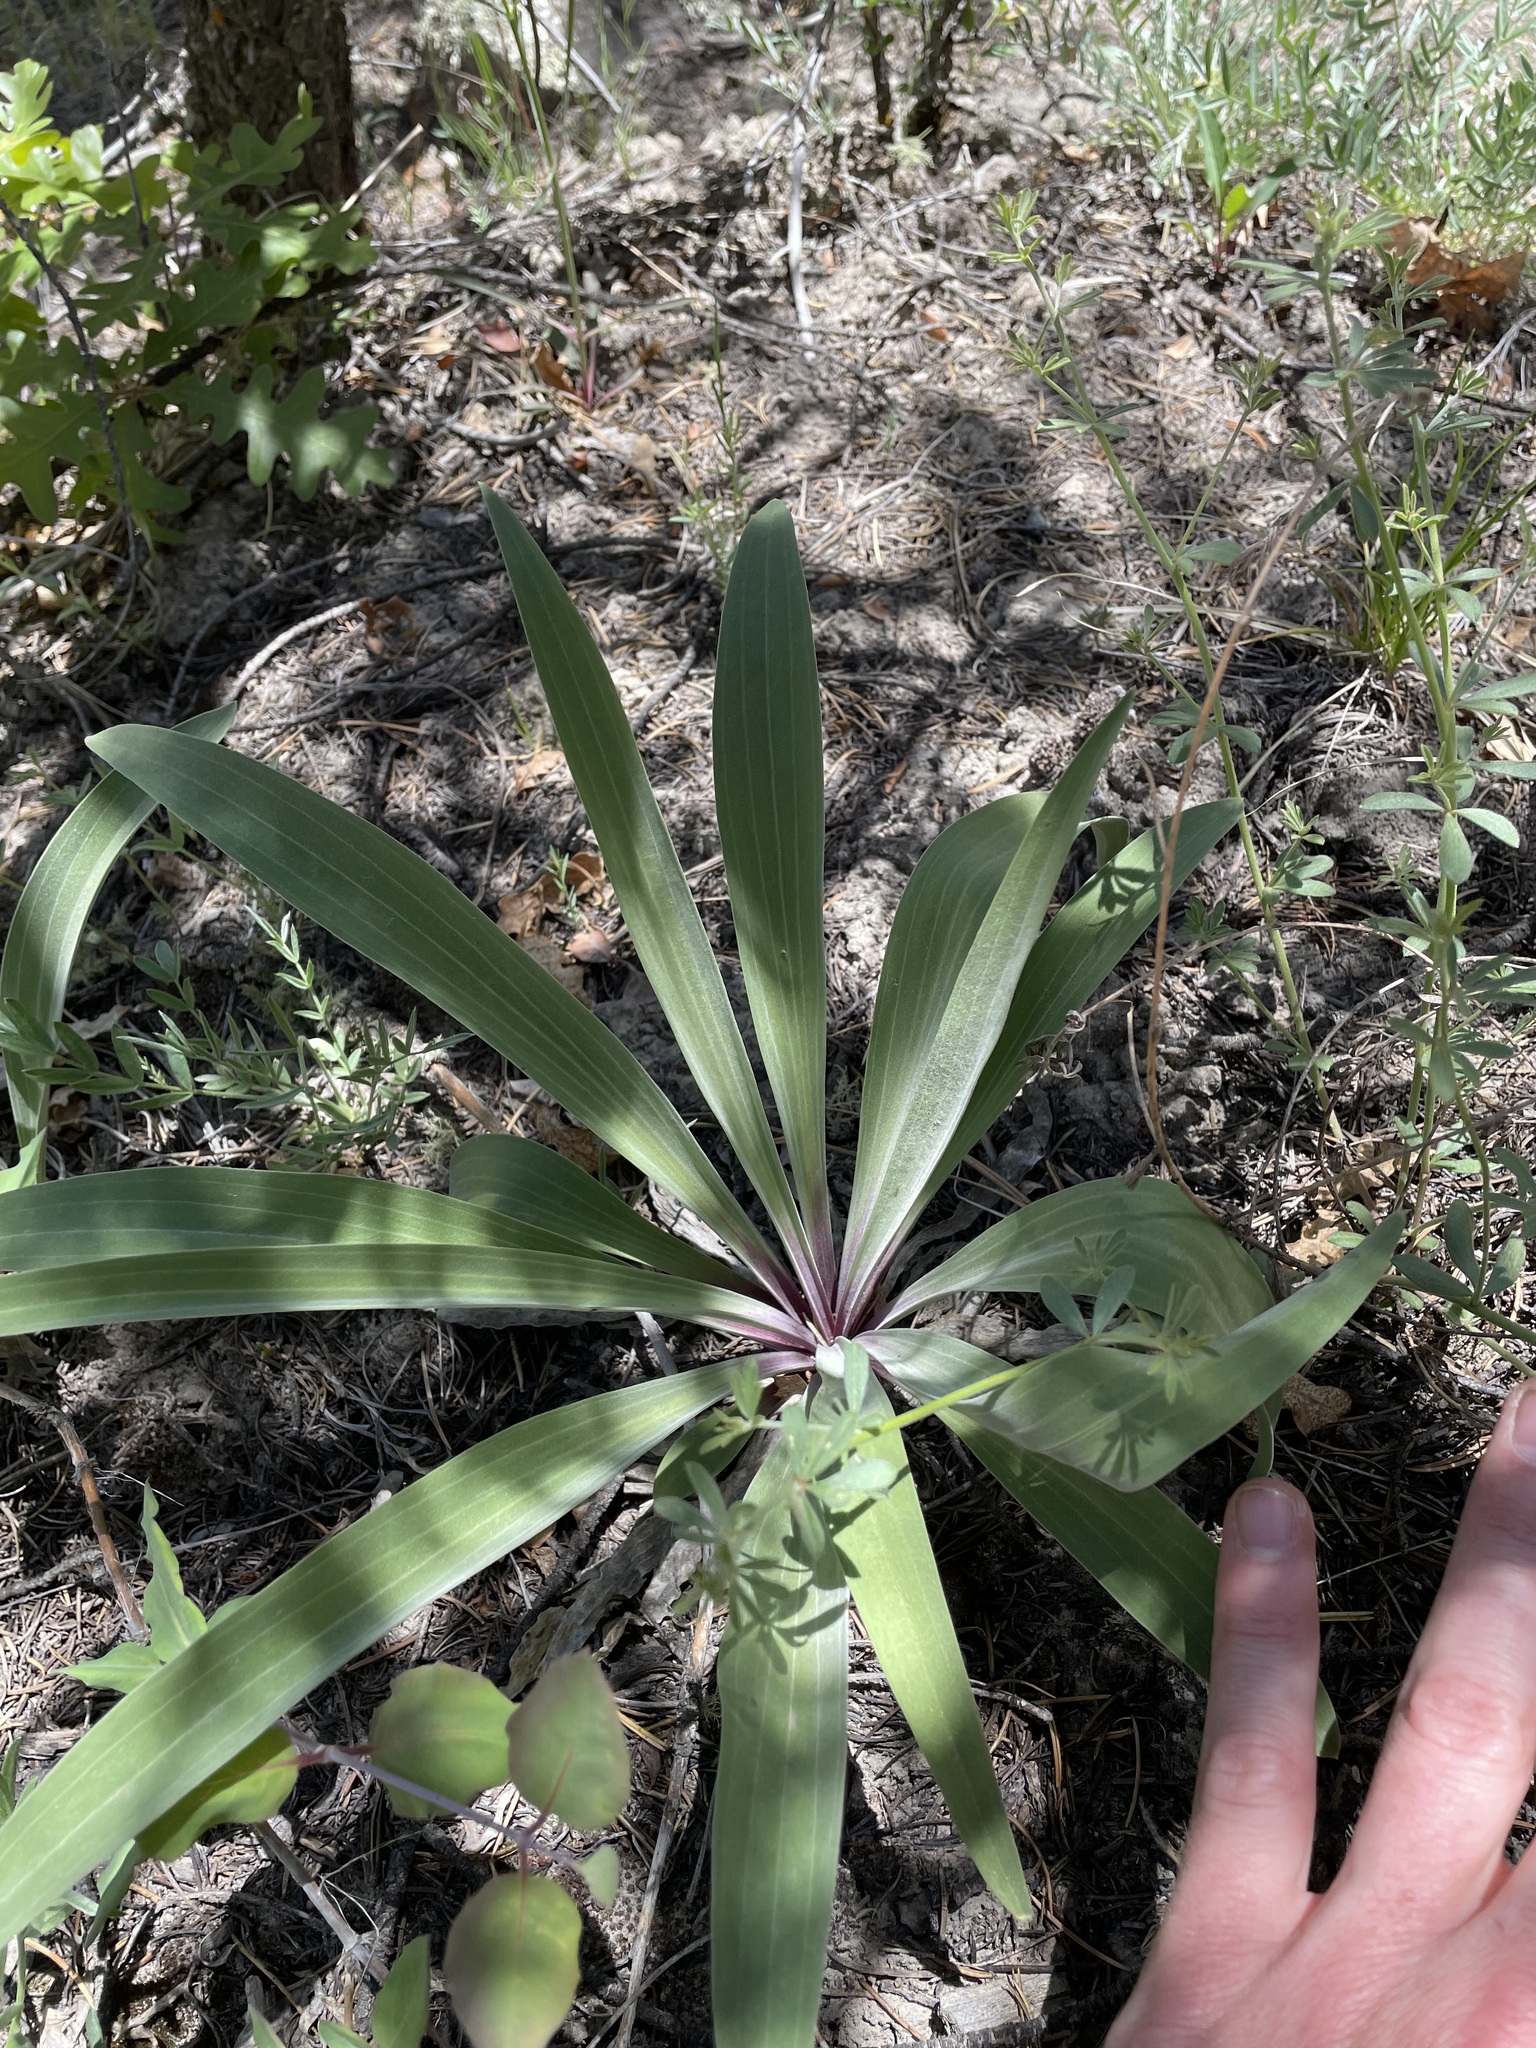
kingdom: Plantae
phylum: Tracheophyta
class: Magnoliopsida
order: Gentianales
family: Gentianaceae
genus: Frasera
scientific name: Frasera speciosa
